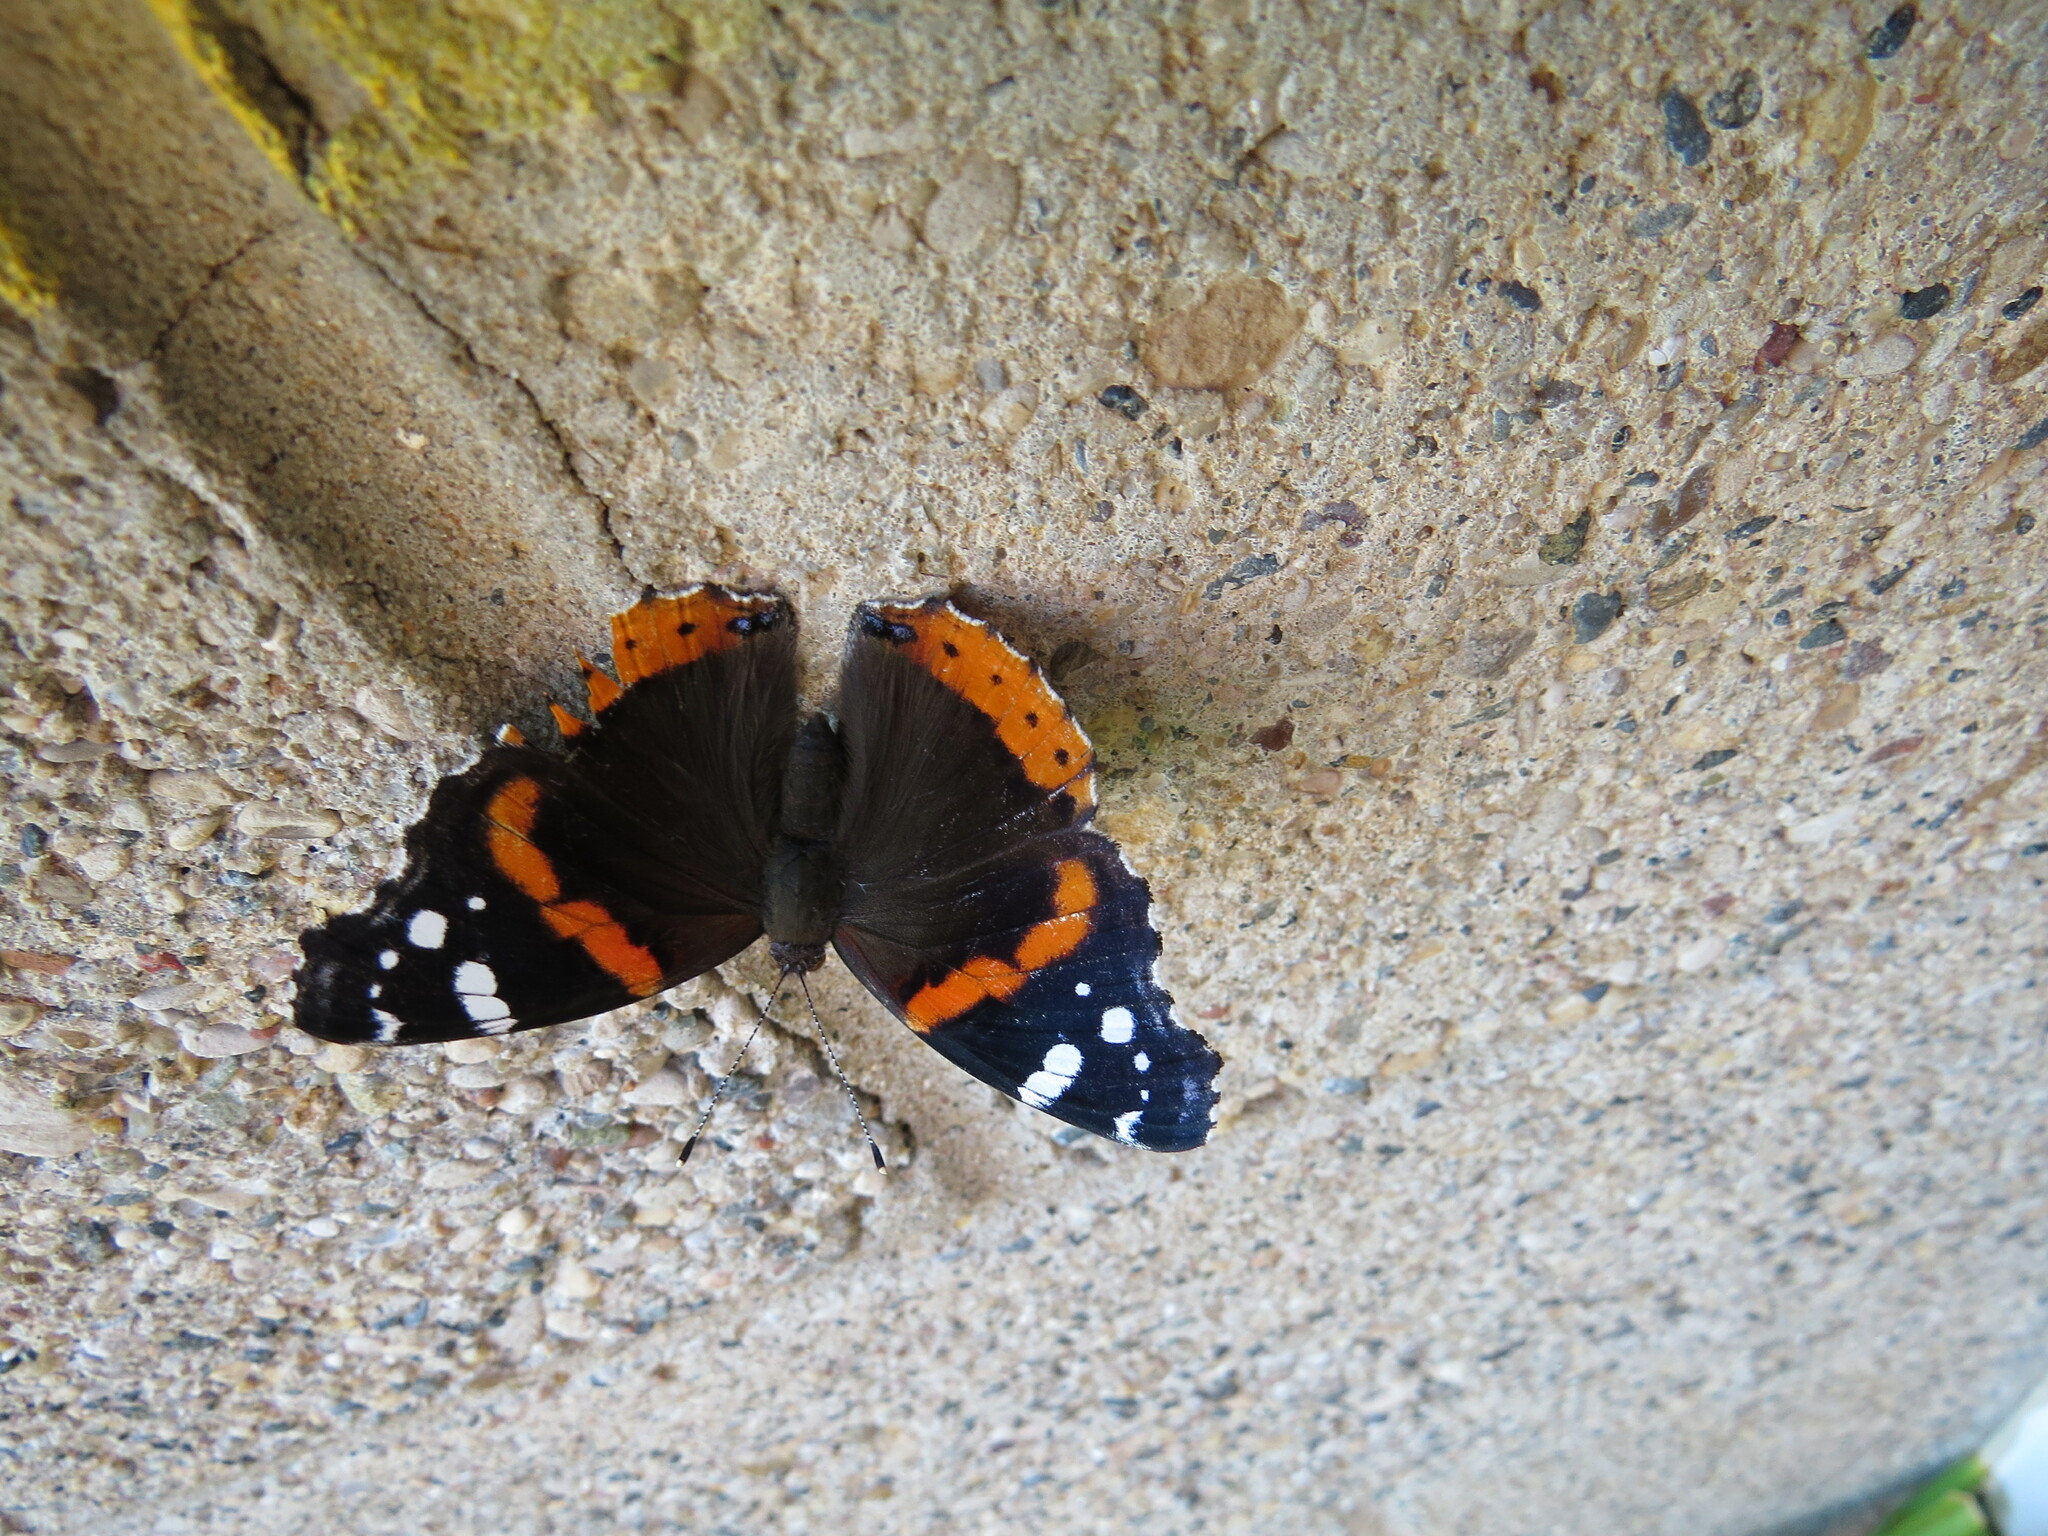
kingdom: Animalia
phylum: Arthropoda
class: Insecta
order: Lepidoptera
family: Nymphalidae
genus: Vanessa
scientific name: Vanessa atalanta
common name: Red admiral
